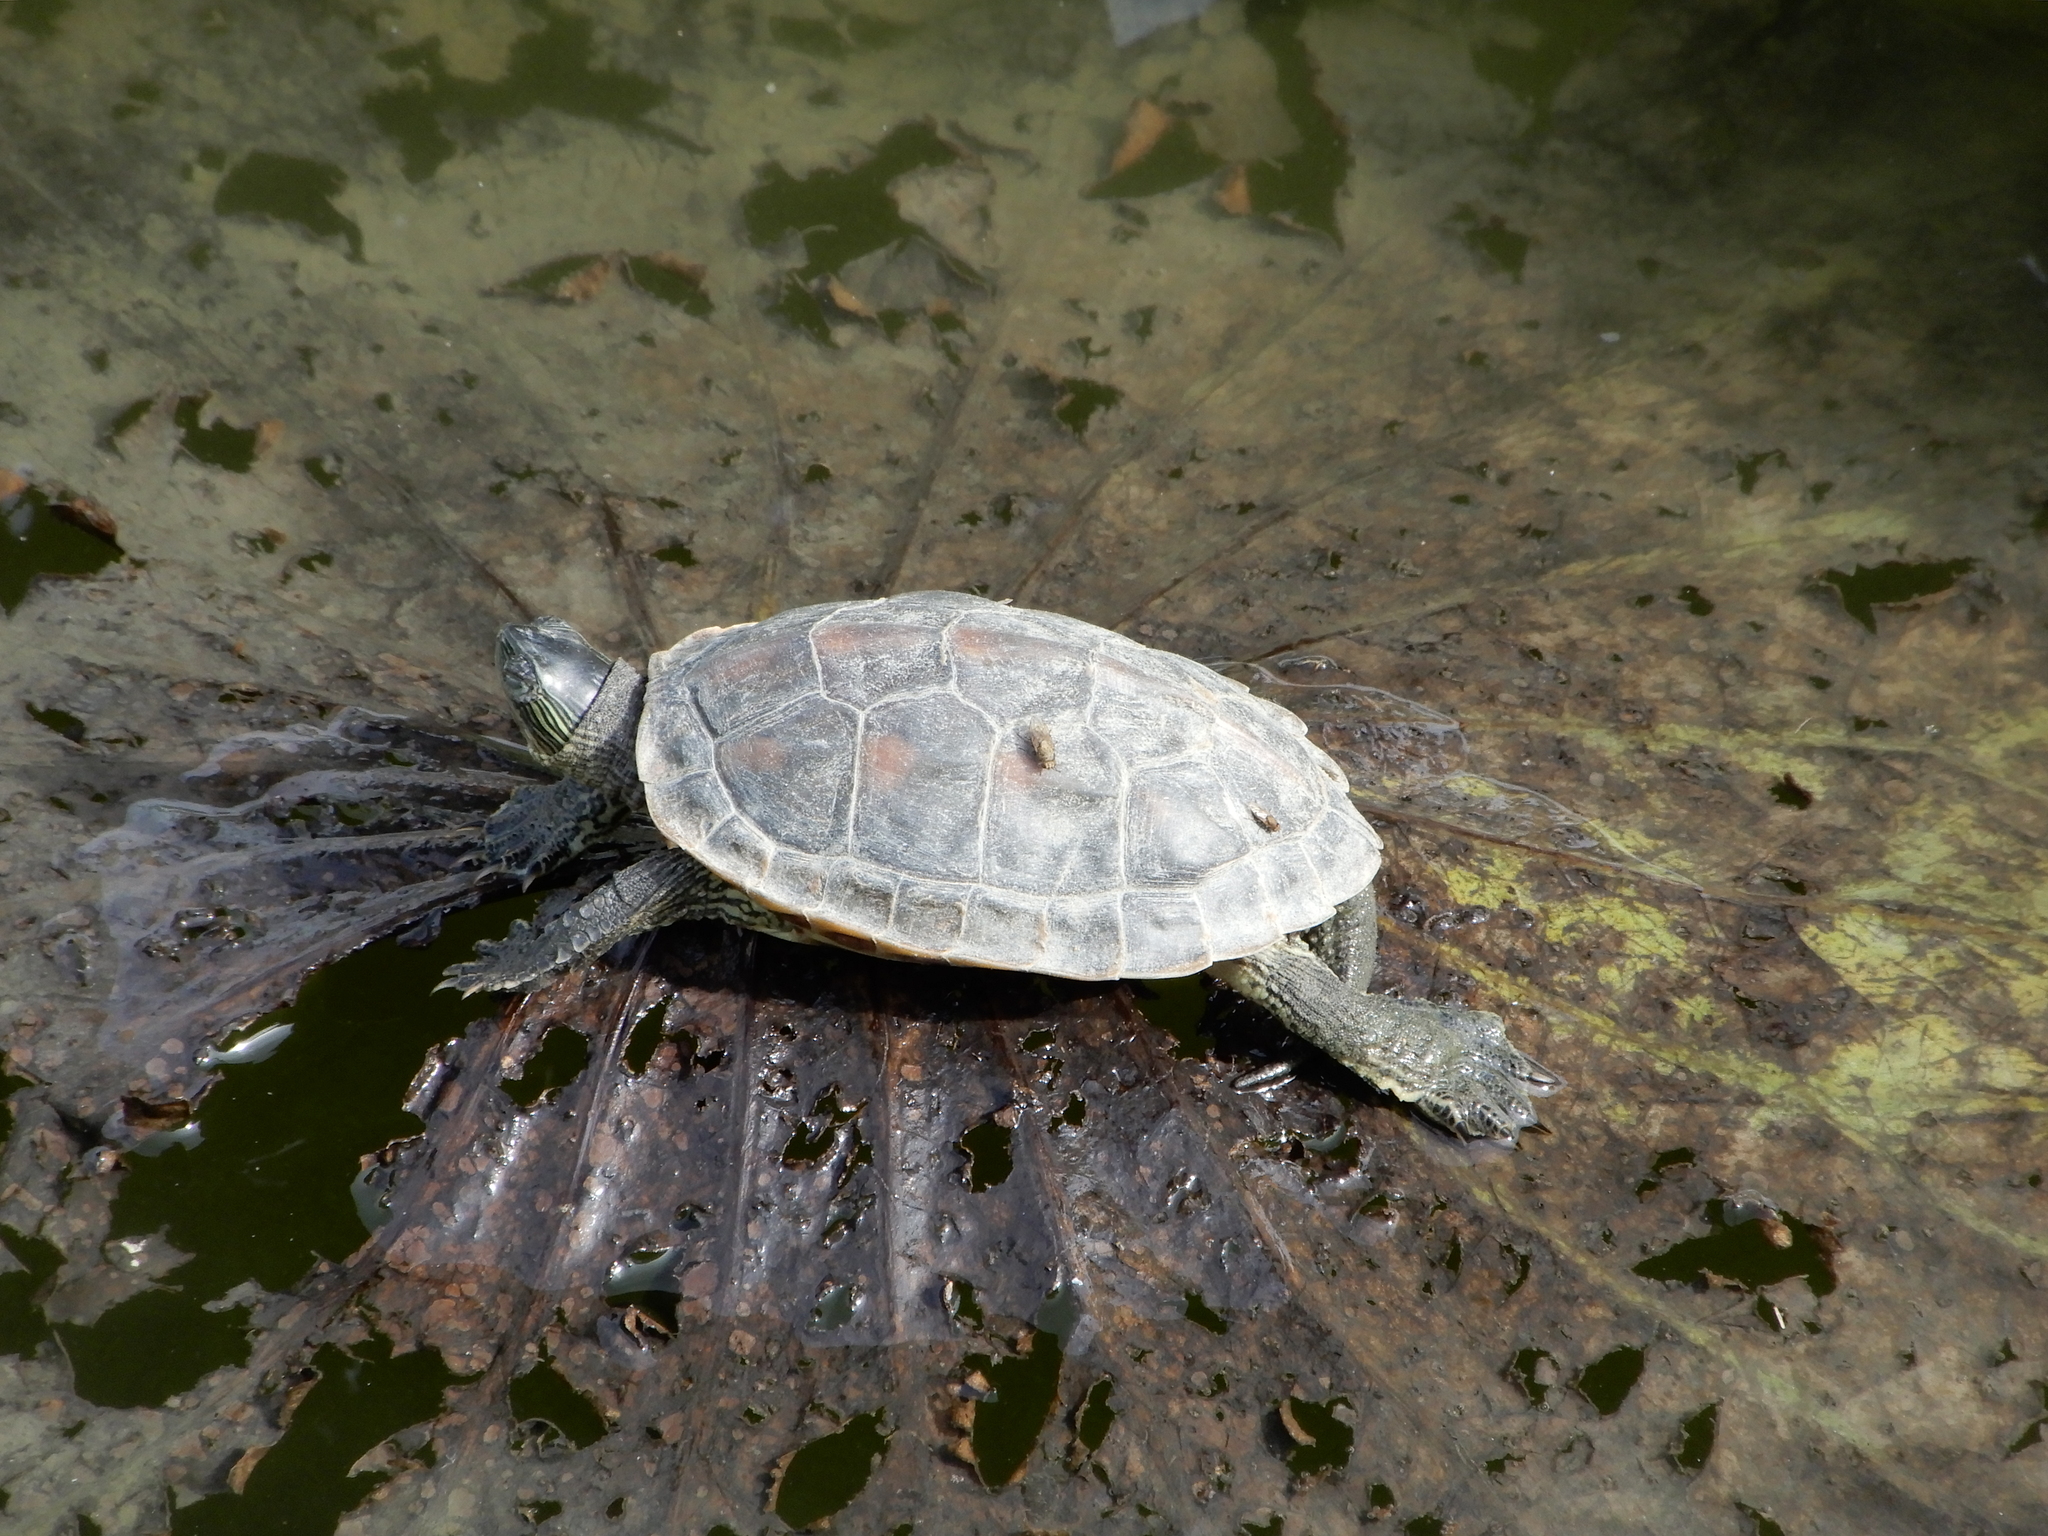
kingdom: Animalia
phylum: Chordata
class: Testudines
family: Geoemydidae
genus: Mauremys
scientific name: Mauremys sinensis
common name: Chinese stripe-necked turtle
